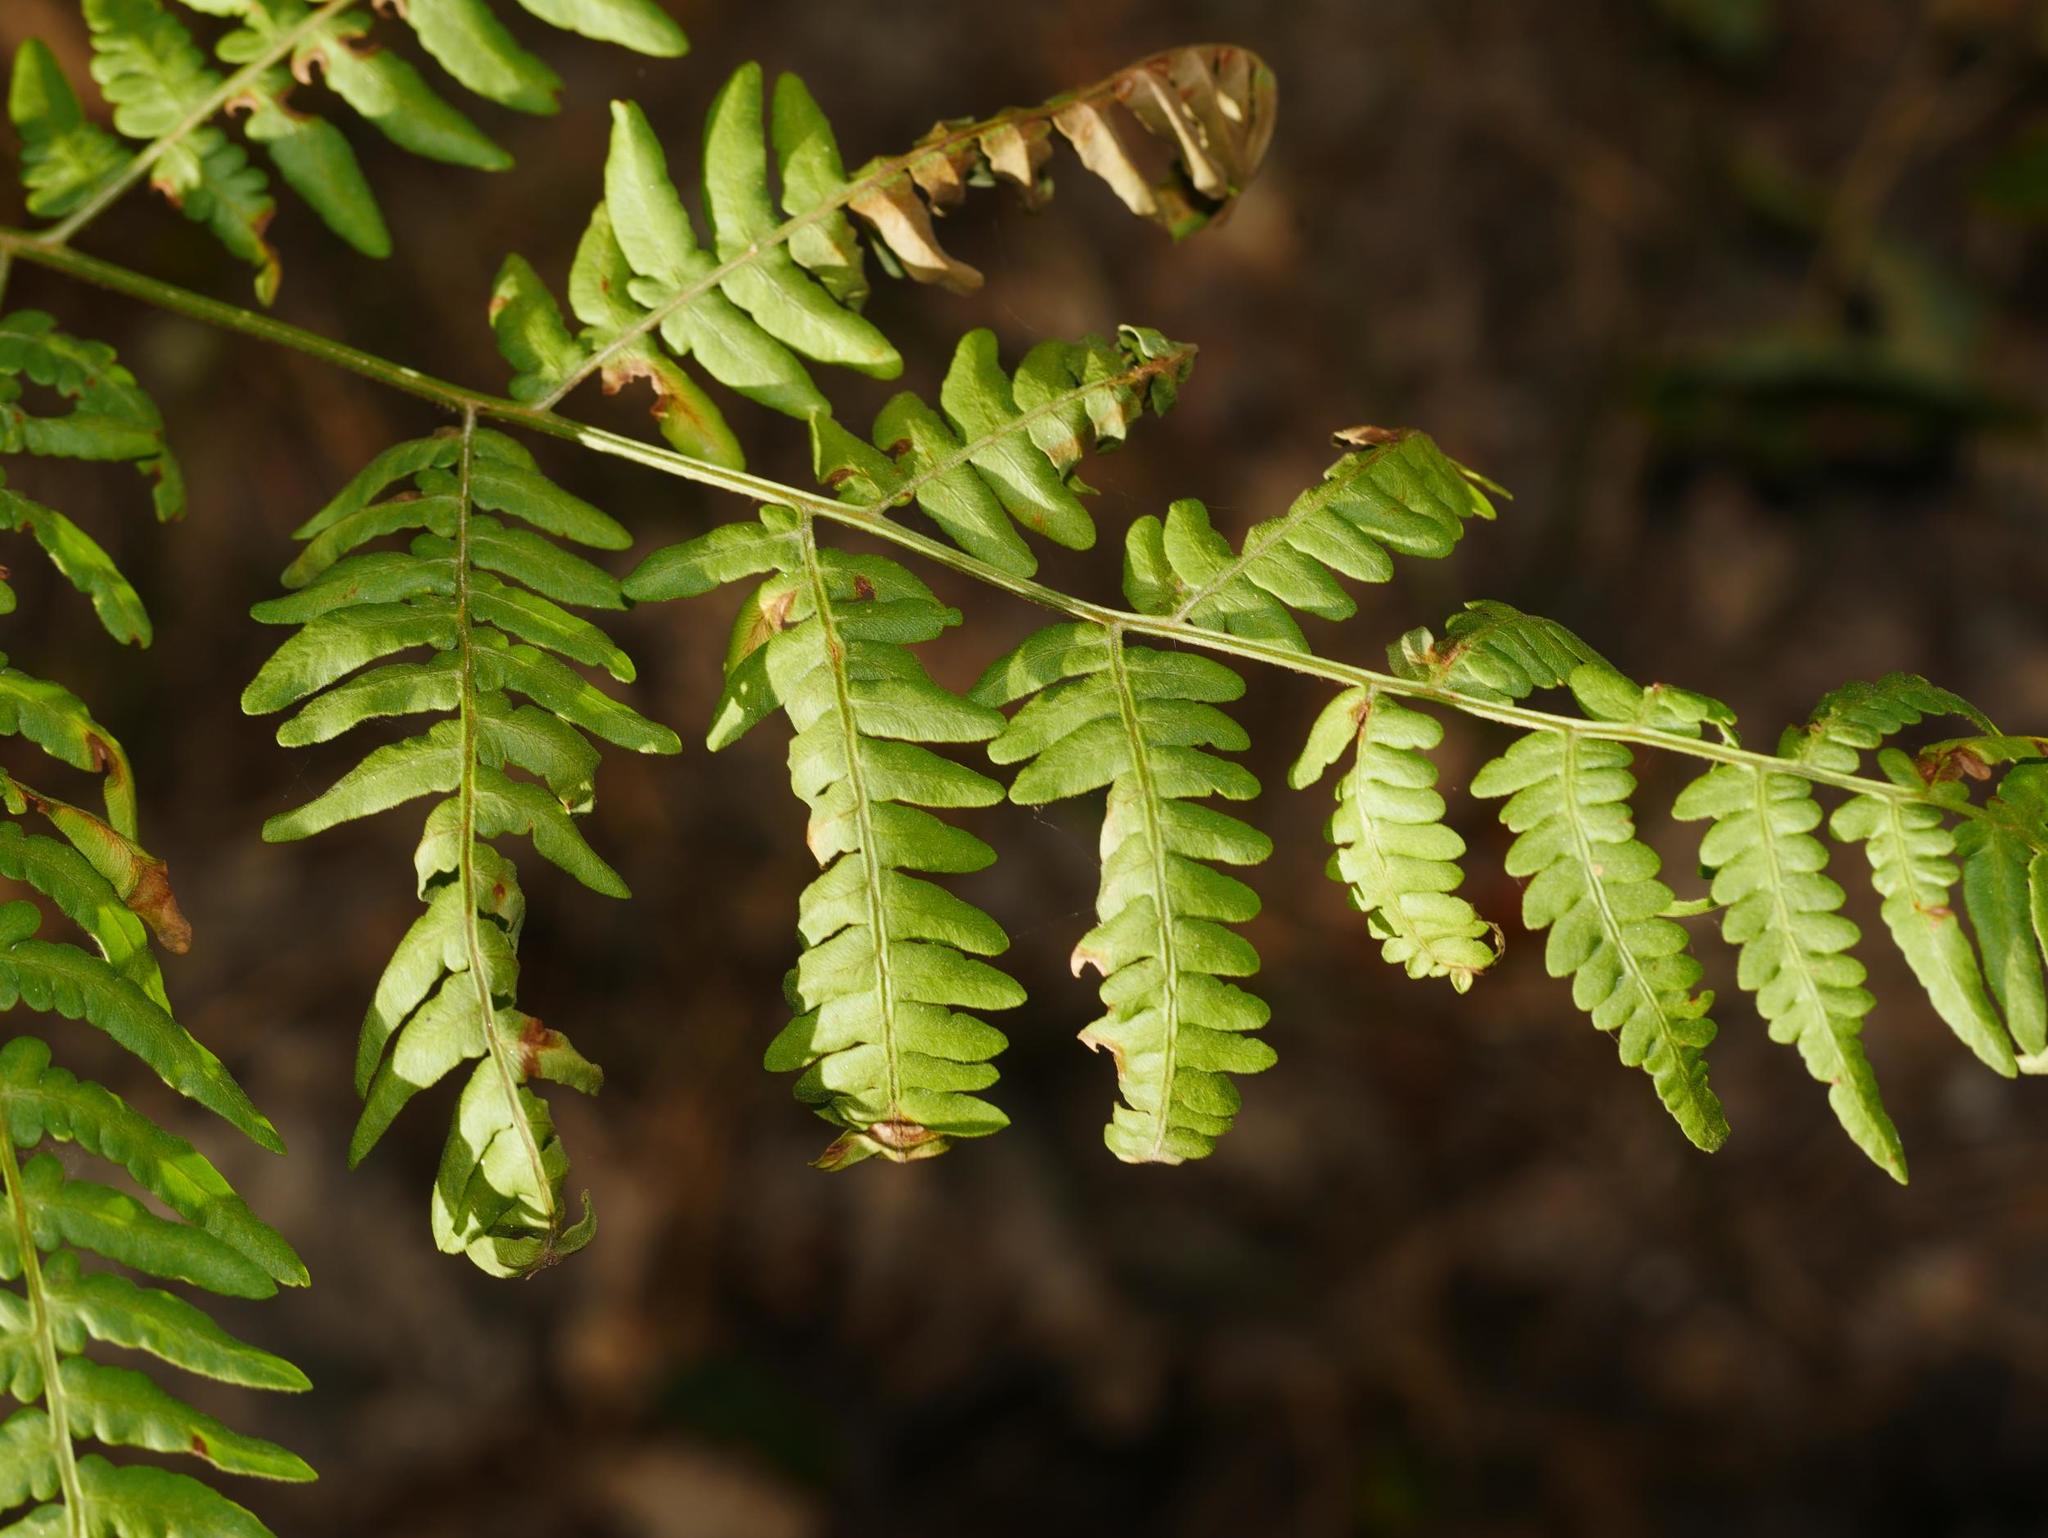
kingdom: Plantae
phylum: Tracheophyta
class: Polypodiopsida
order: Polypodiales
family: Dennstaedtiaceae
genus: Pteridium
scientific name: Pteridium aquilinum
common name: Bracken
